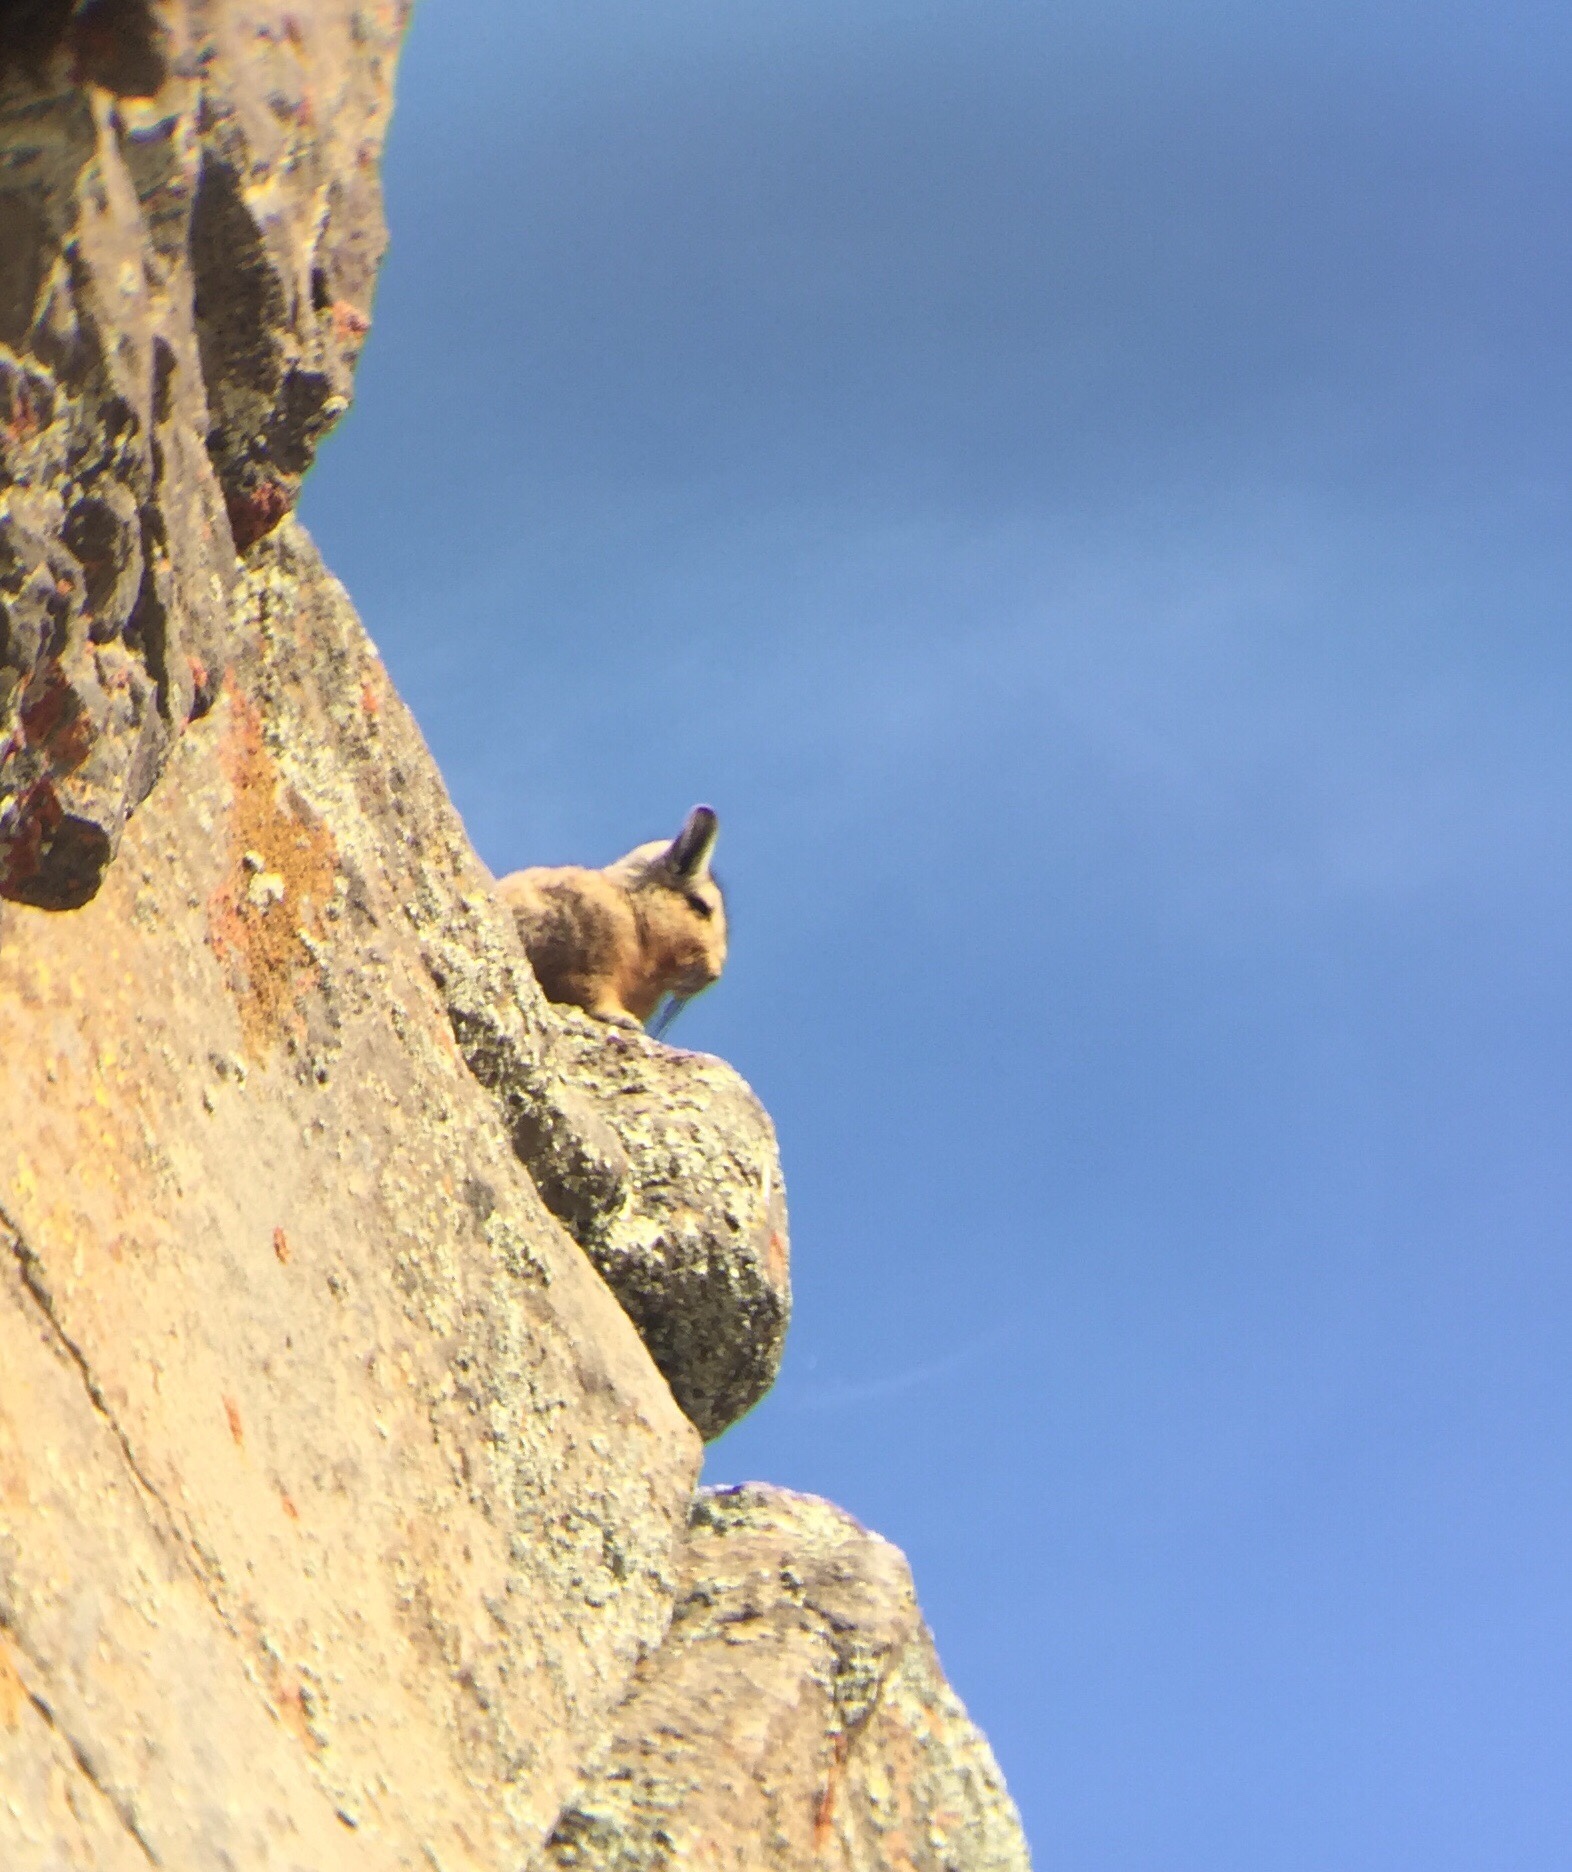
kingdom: Animalia
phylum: Chordata
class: Mammalia
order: Rodentia
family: Chinchillidae
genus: Lagidium
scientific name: Lagidium wolffsohni
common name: Wolffsohn's viscacha
